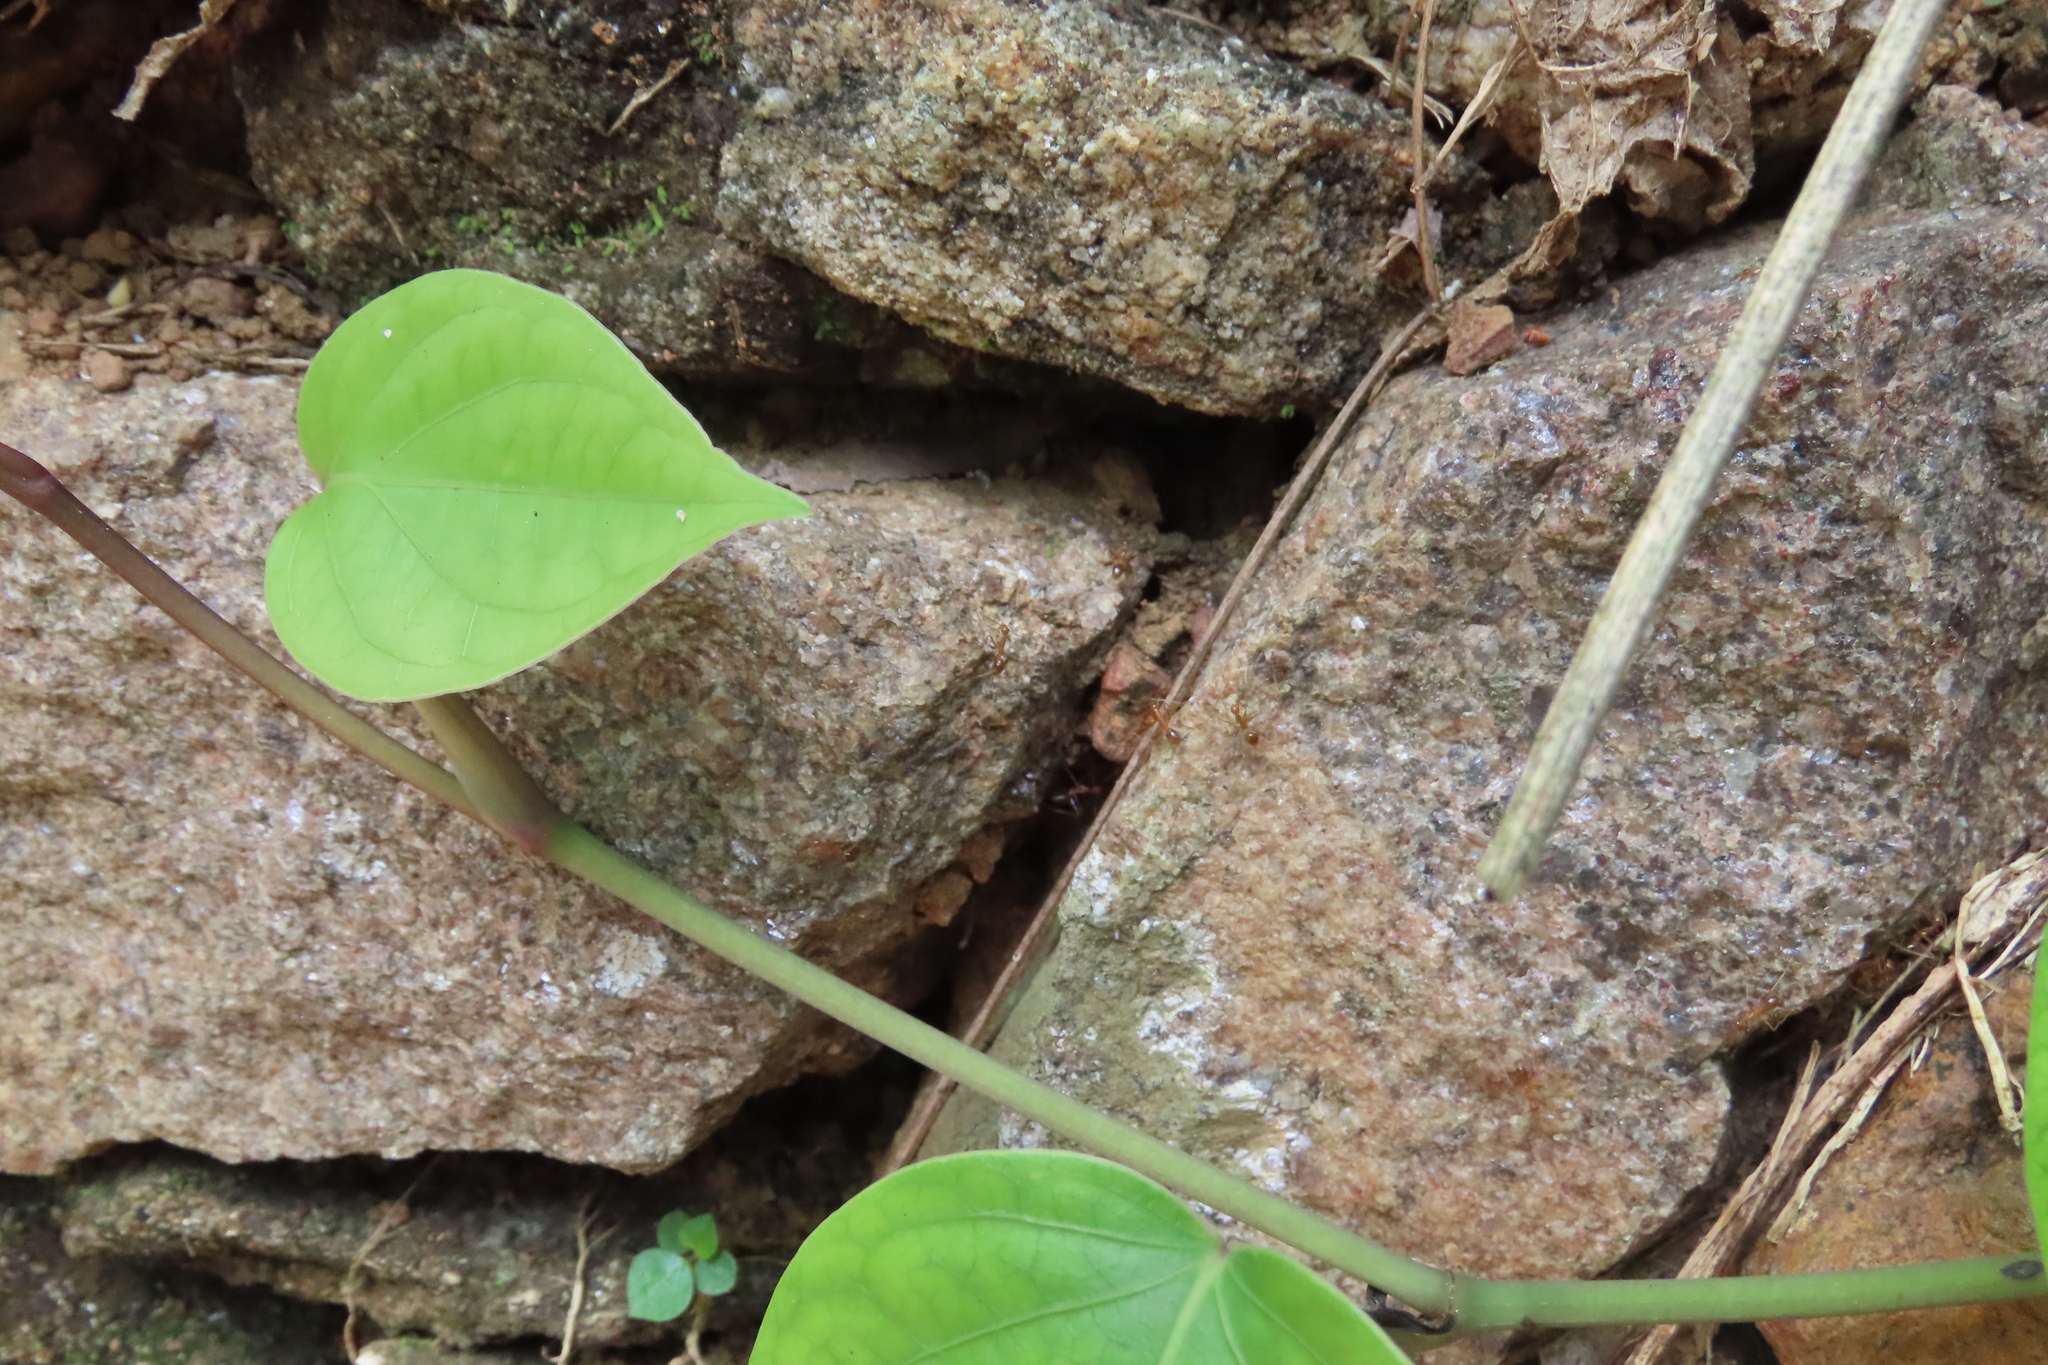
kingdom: Animalia
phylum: Arthropoda
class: Insecta
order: Hymenoptera
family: Formicidae
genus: Anoplolepis
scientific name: Anoplolepis gracilipes
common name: Ant
